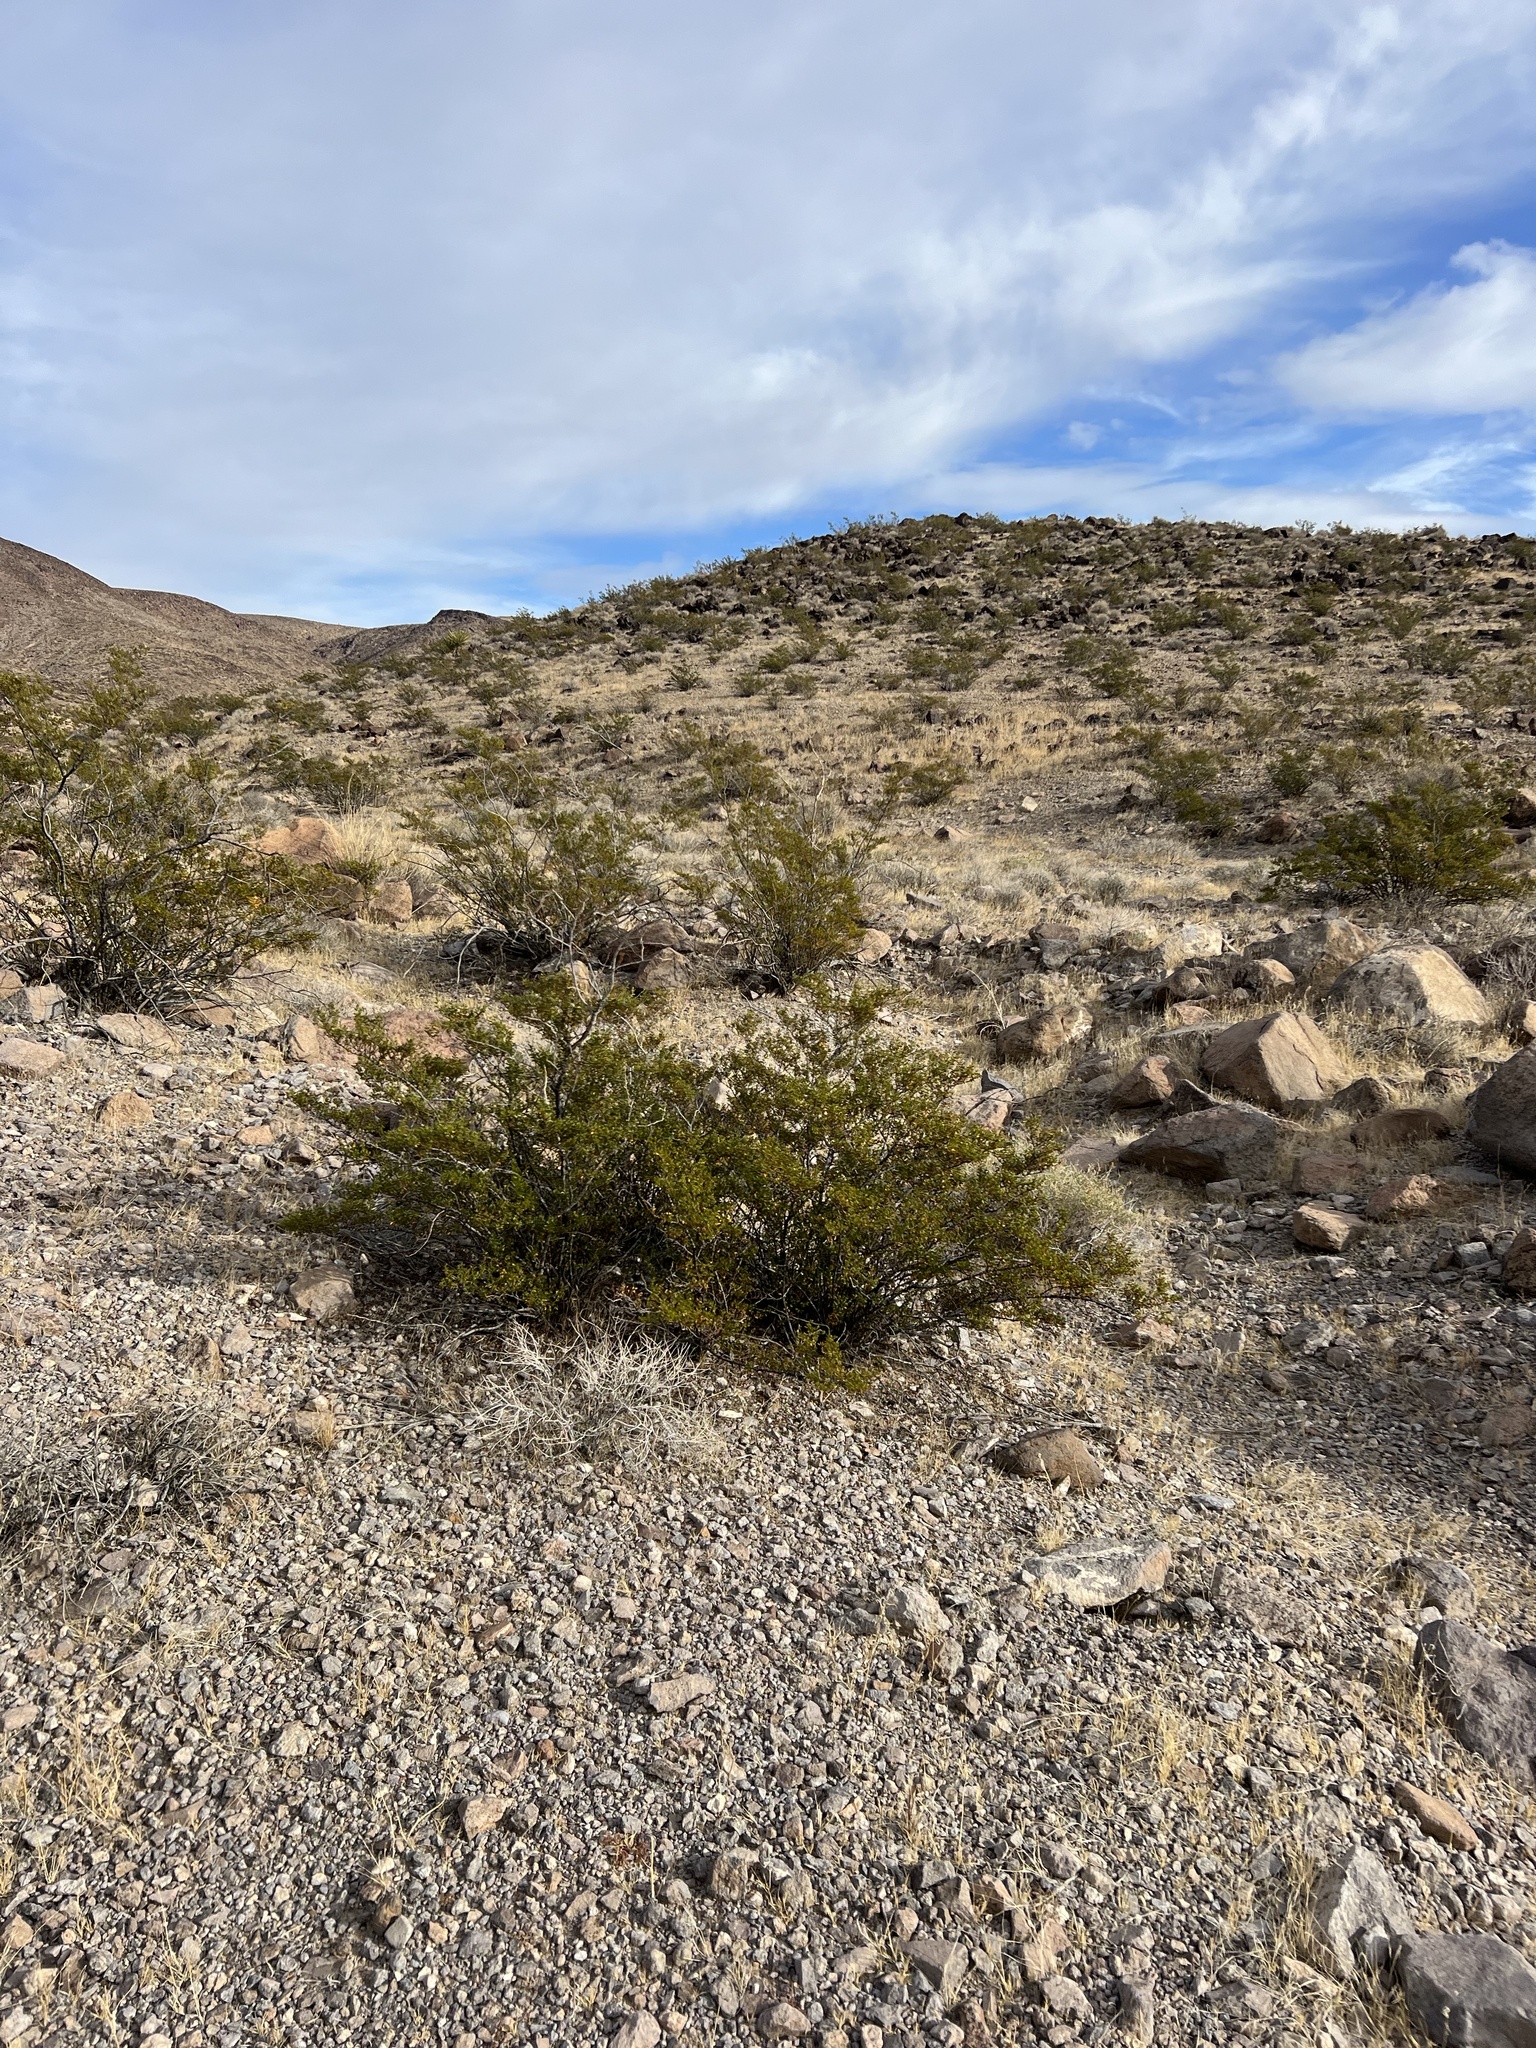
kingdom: Plantae
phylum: Tracheophyta
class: Magnoliopsida
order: Zygophyllales
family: Zygophyllaceae
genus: Larrea
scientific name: Larrea tridentata
